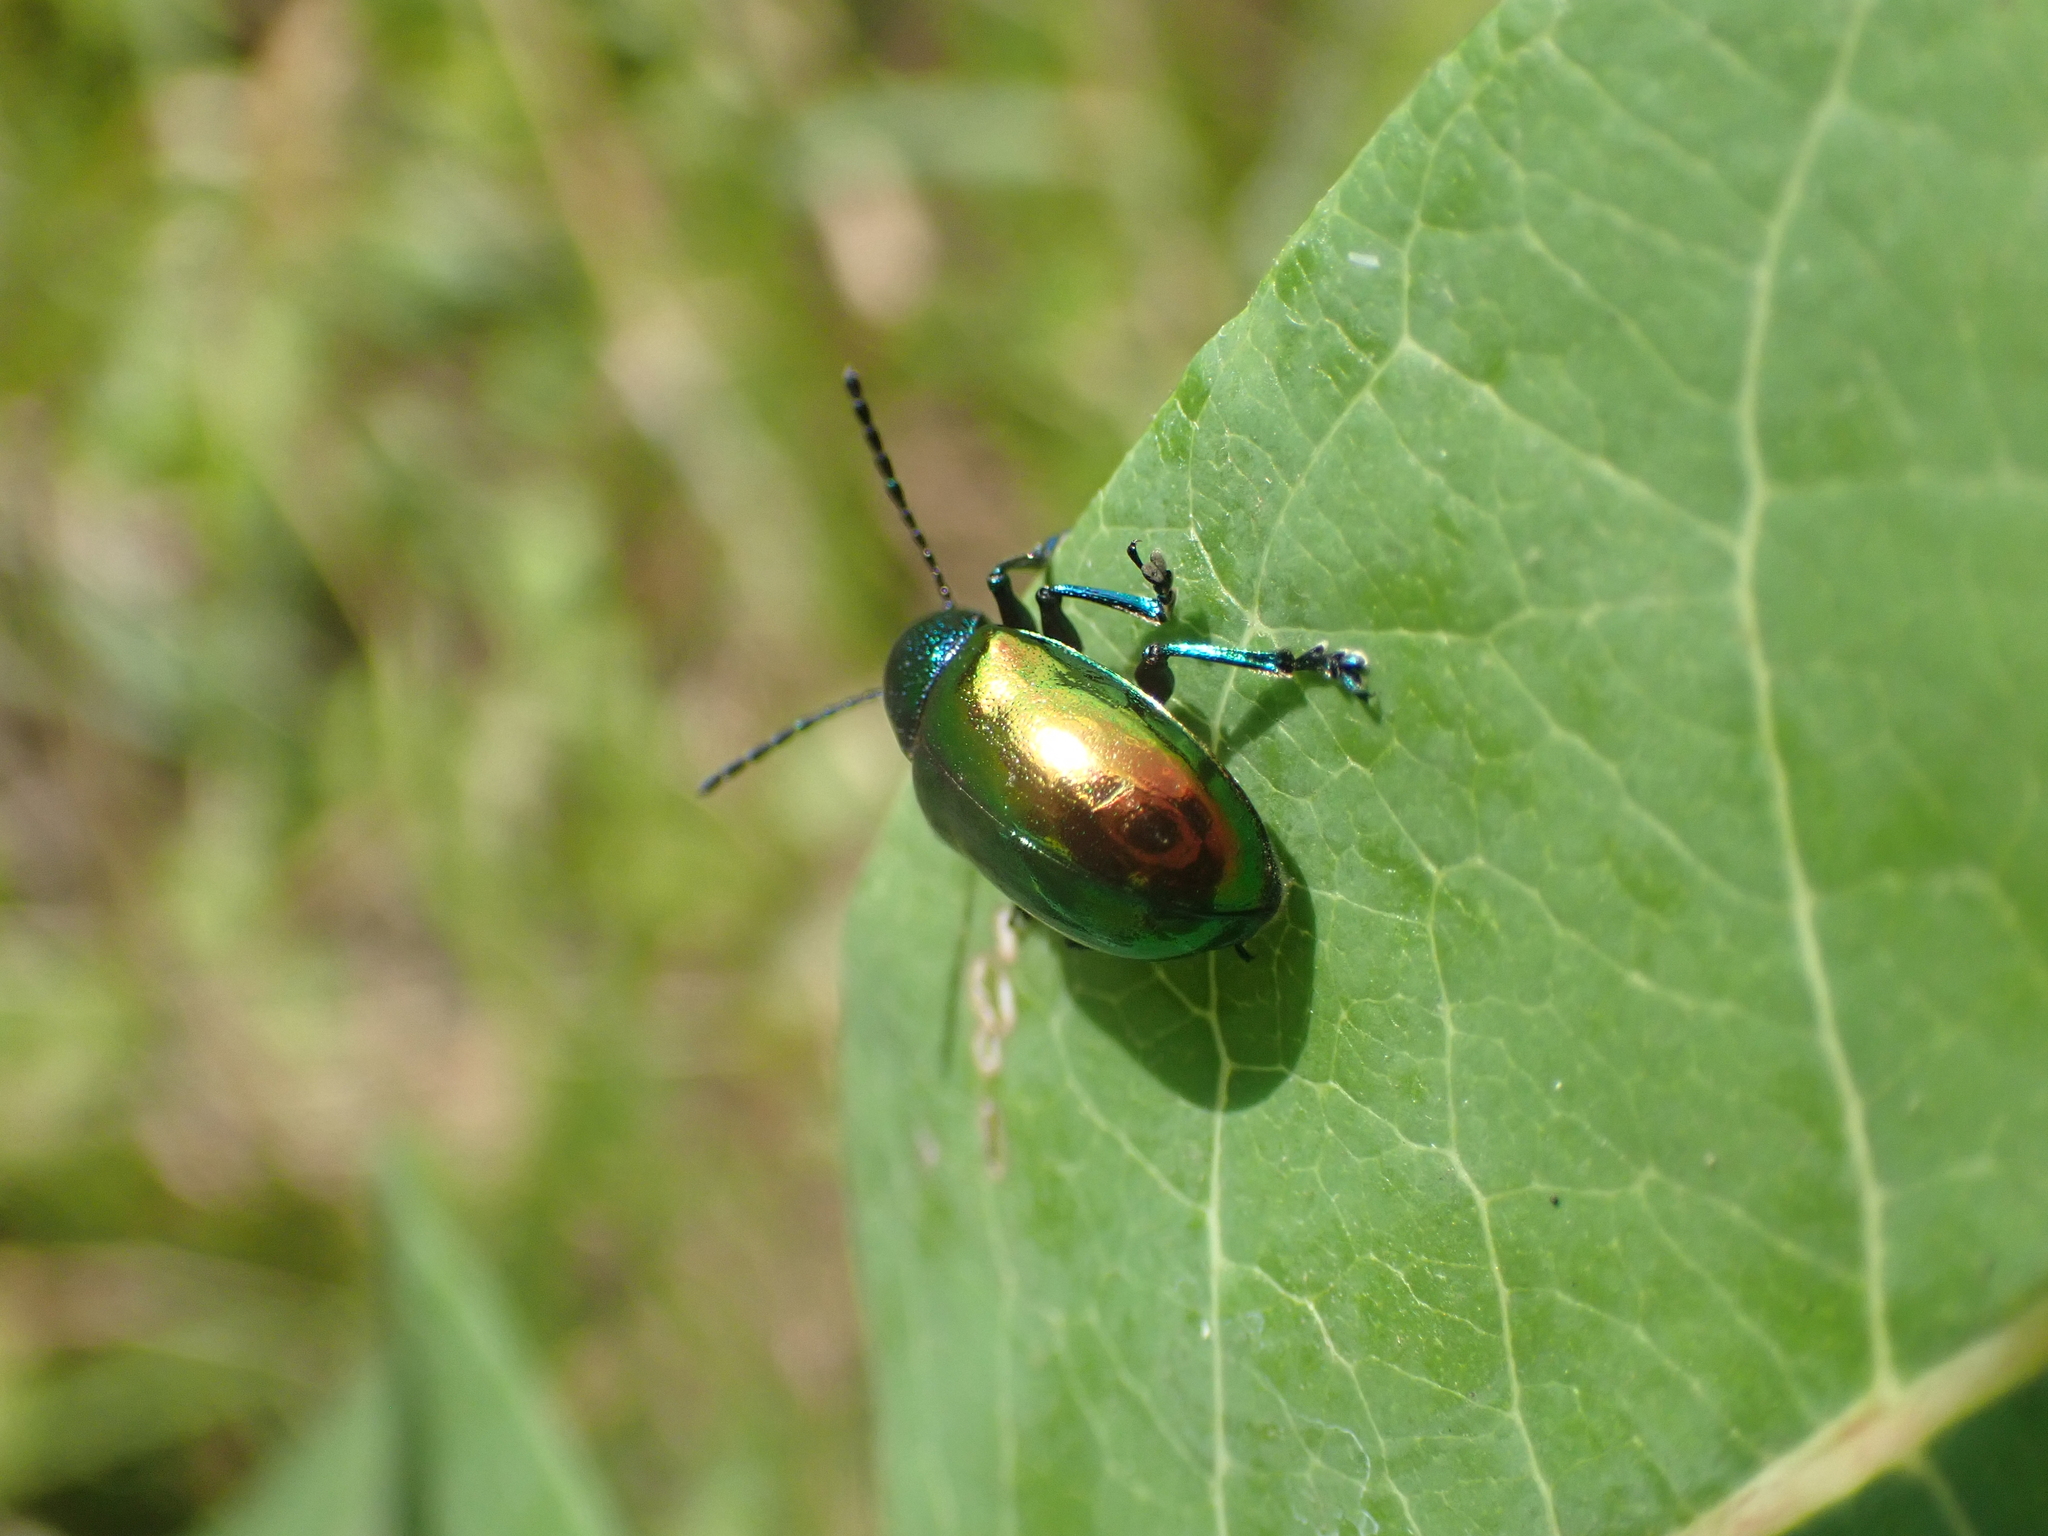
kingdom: Animalia
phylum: Arthropoda
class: Insecta
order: Coleoptera
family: Chrysomelidae
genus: Chrysochus
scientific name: Chrysochus auratus
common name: Dogbane leaf beetle
